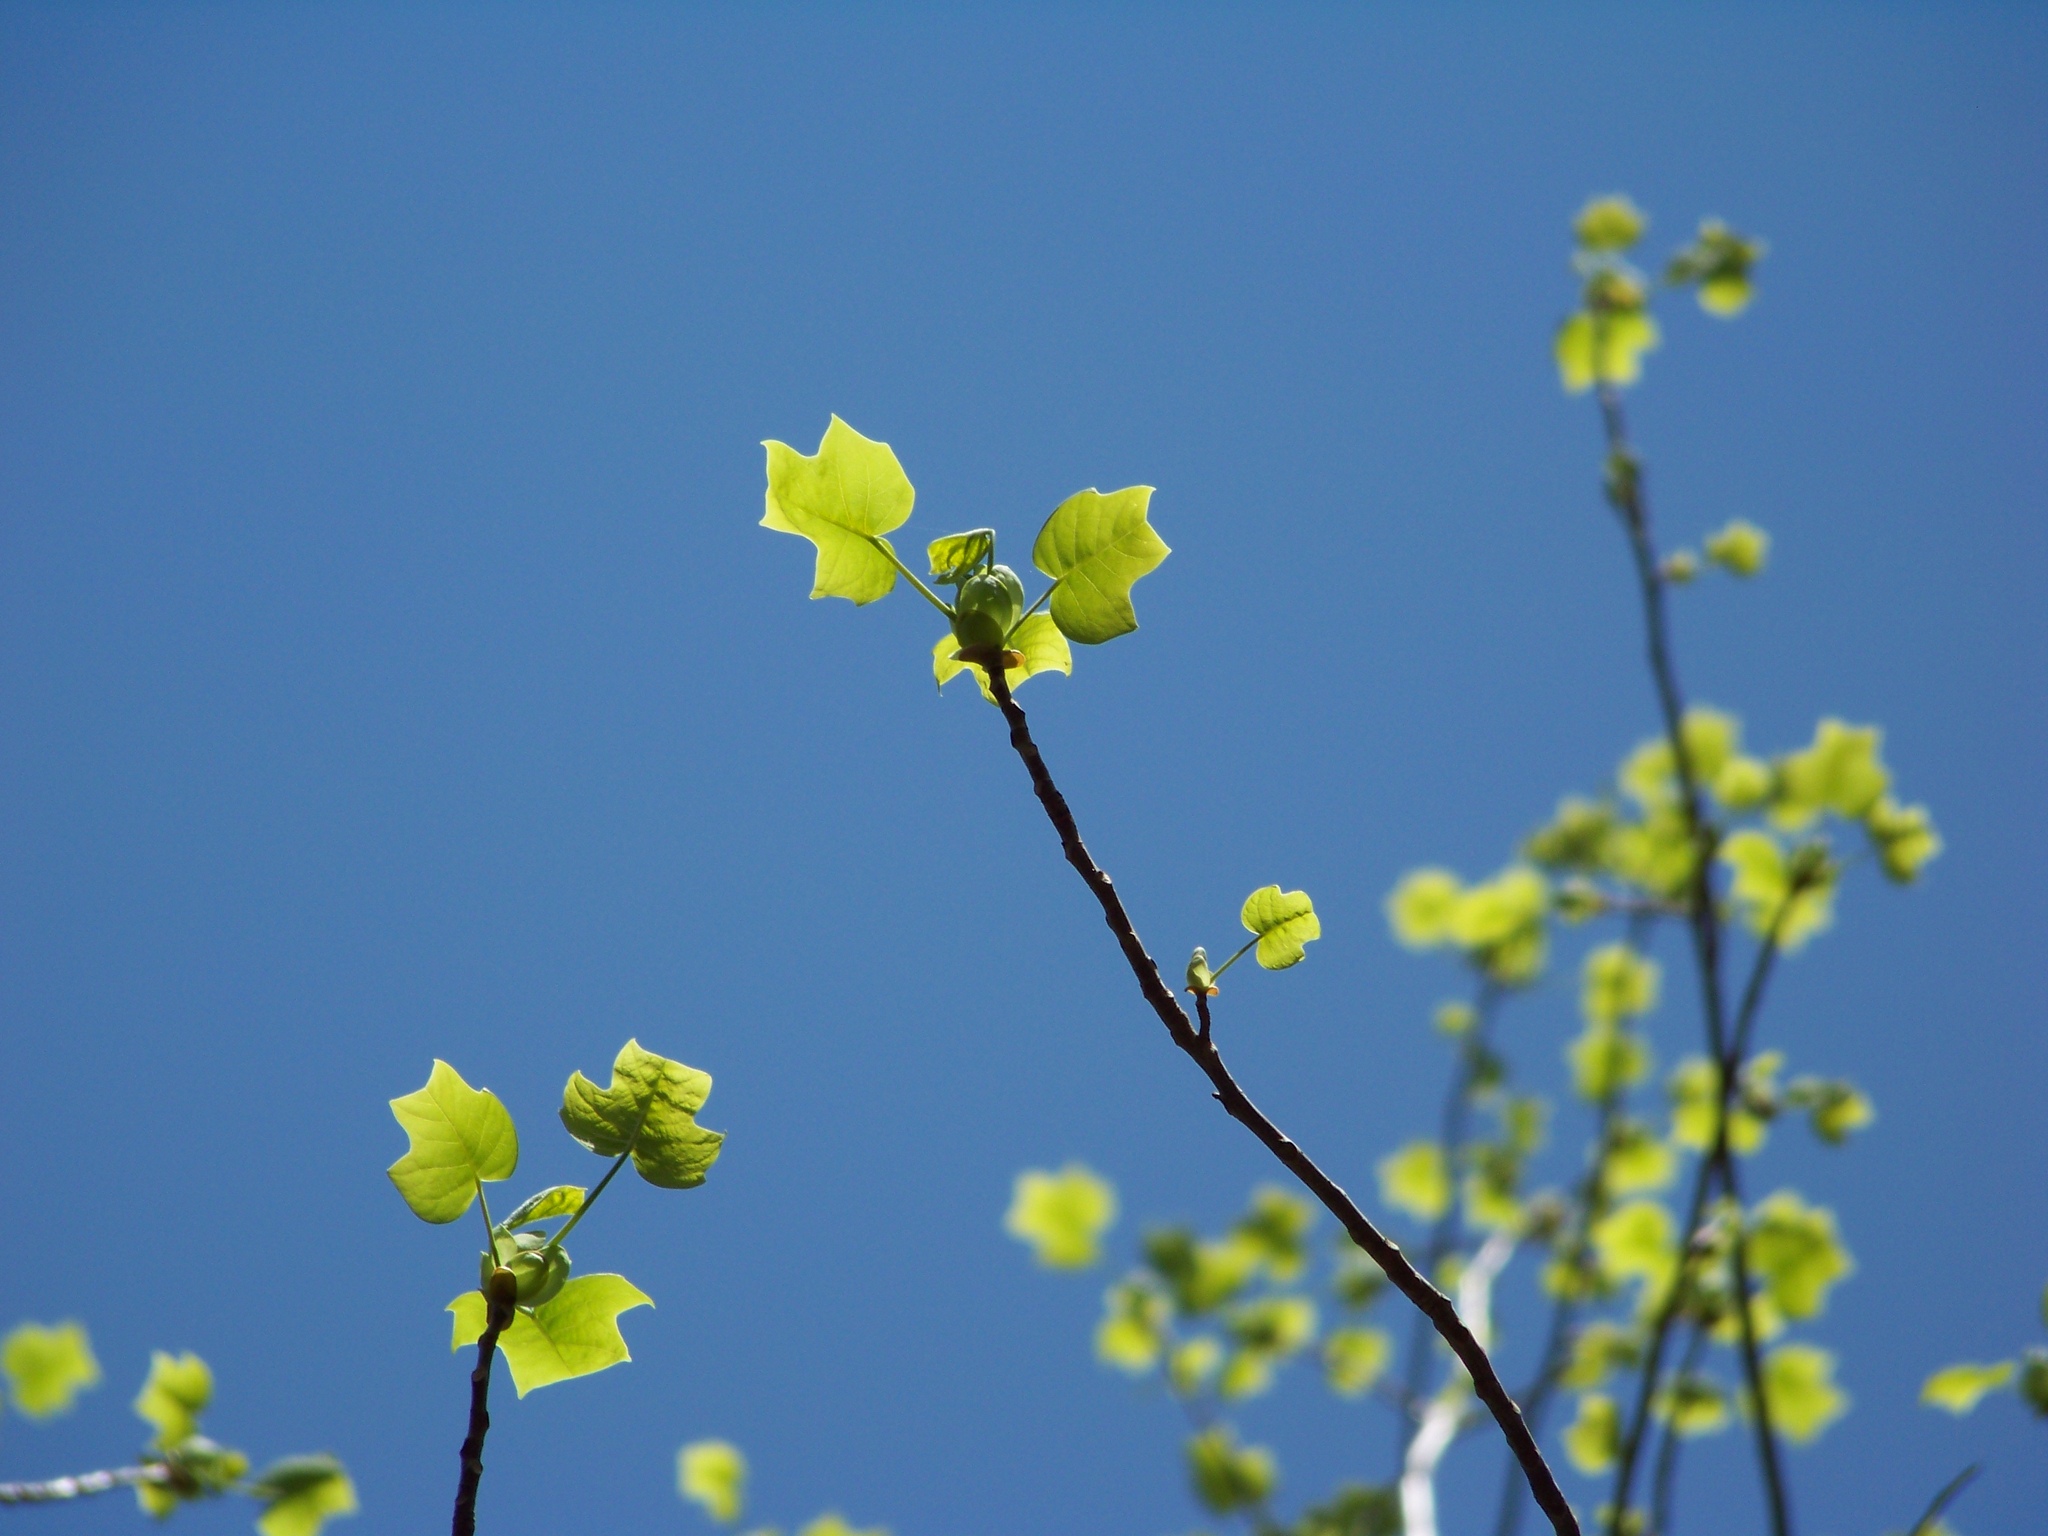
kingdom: Plantae
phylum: Tracheophyta
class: Magnoliopsida
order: Magnoliales
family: Magnoliaceae
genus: Liriodendron
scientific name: Liriodendron tulipifera
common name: Tulip tree
